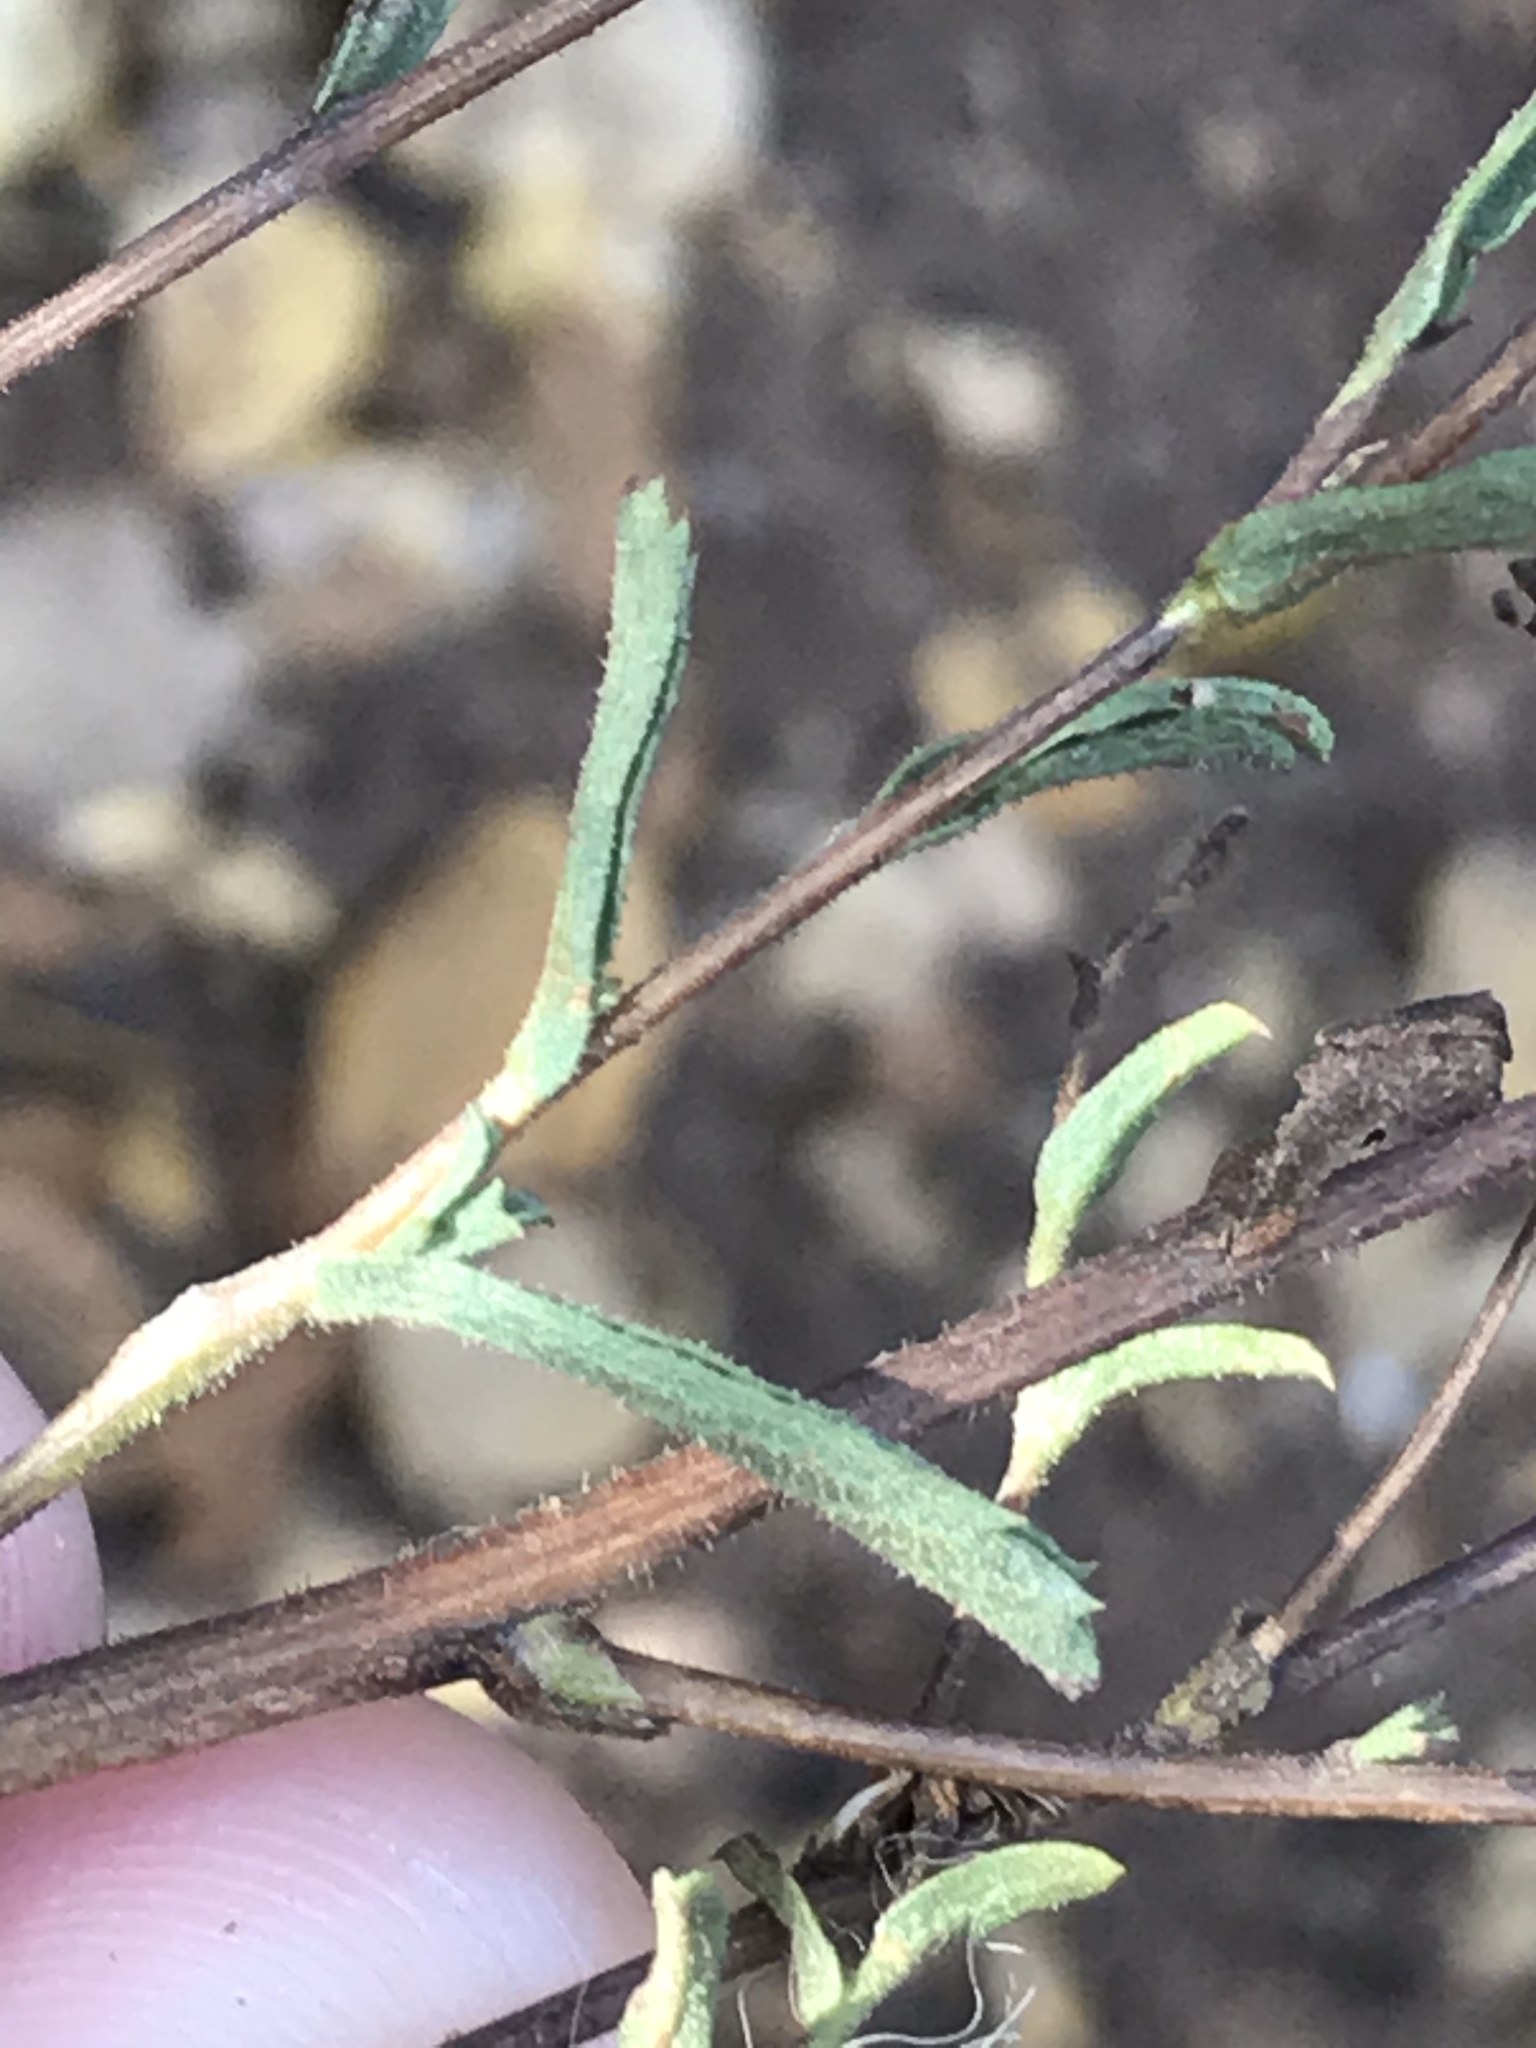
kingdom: Plantae
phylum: Tracheophyta
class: Magnoliopsida
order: Asterales
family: Asteraceae
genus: Corethrogyne
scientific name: Corethrogyne filaginifolia
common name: Sand-aster
